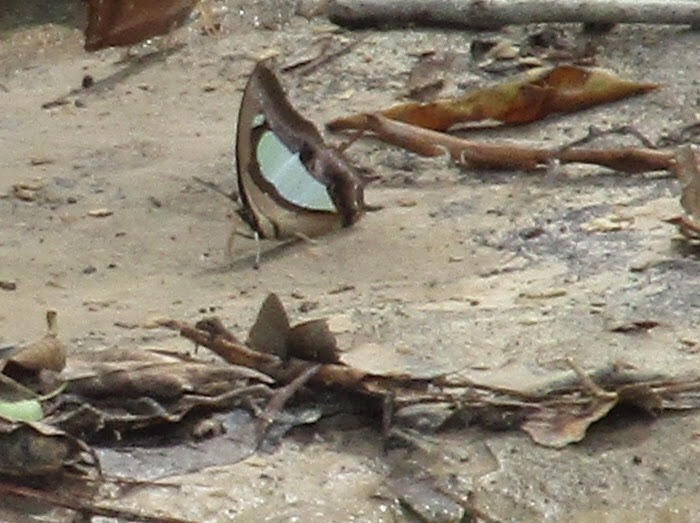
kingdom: Animalia
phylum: Arthropoda
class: Insecta
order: Lepidoptera
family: Nymphalidae
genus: Polyura
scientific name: Polyura athamas
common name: Common nawab
